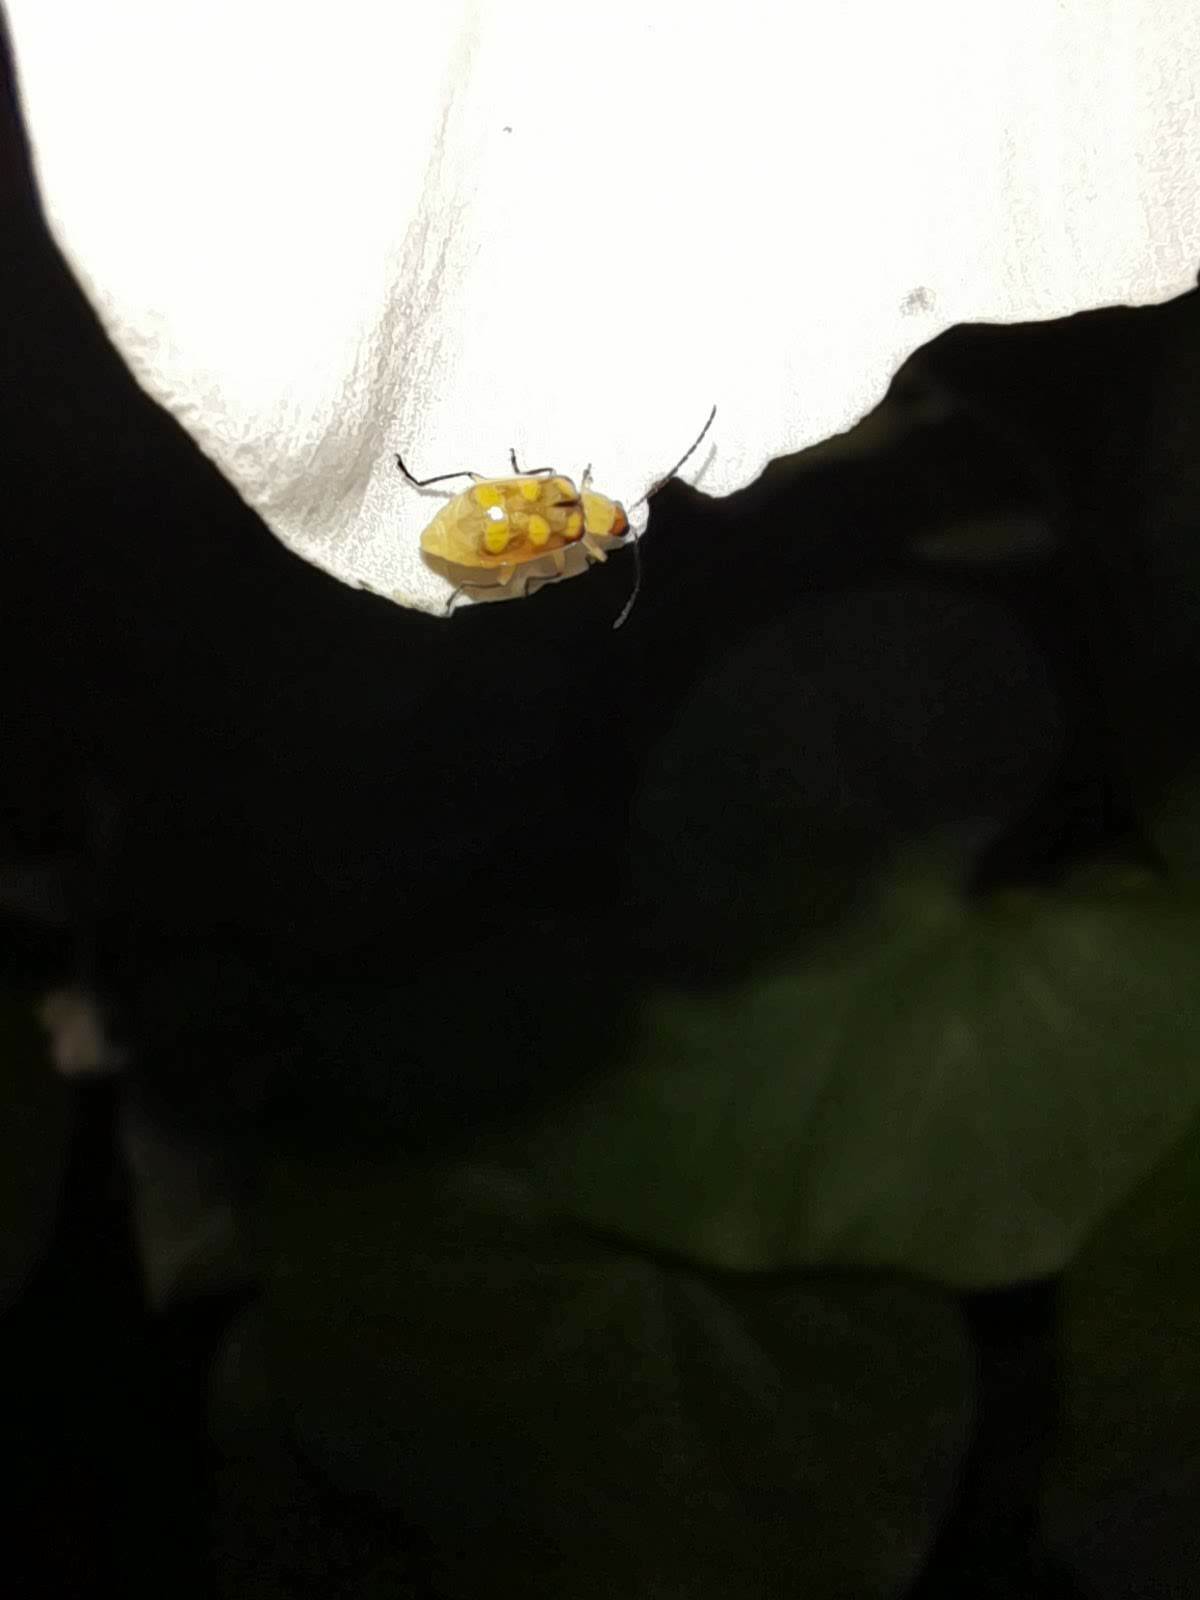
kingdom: Animalia
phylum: Arthropoda
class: Insecta
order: Coleoptera
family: Chrysomelidae
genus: Diabrotica
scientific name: Diabrotica speciosa
